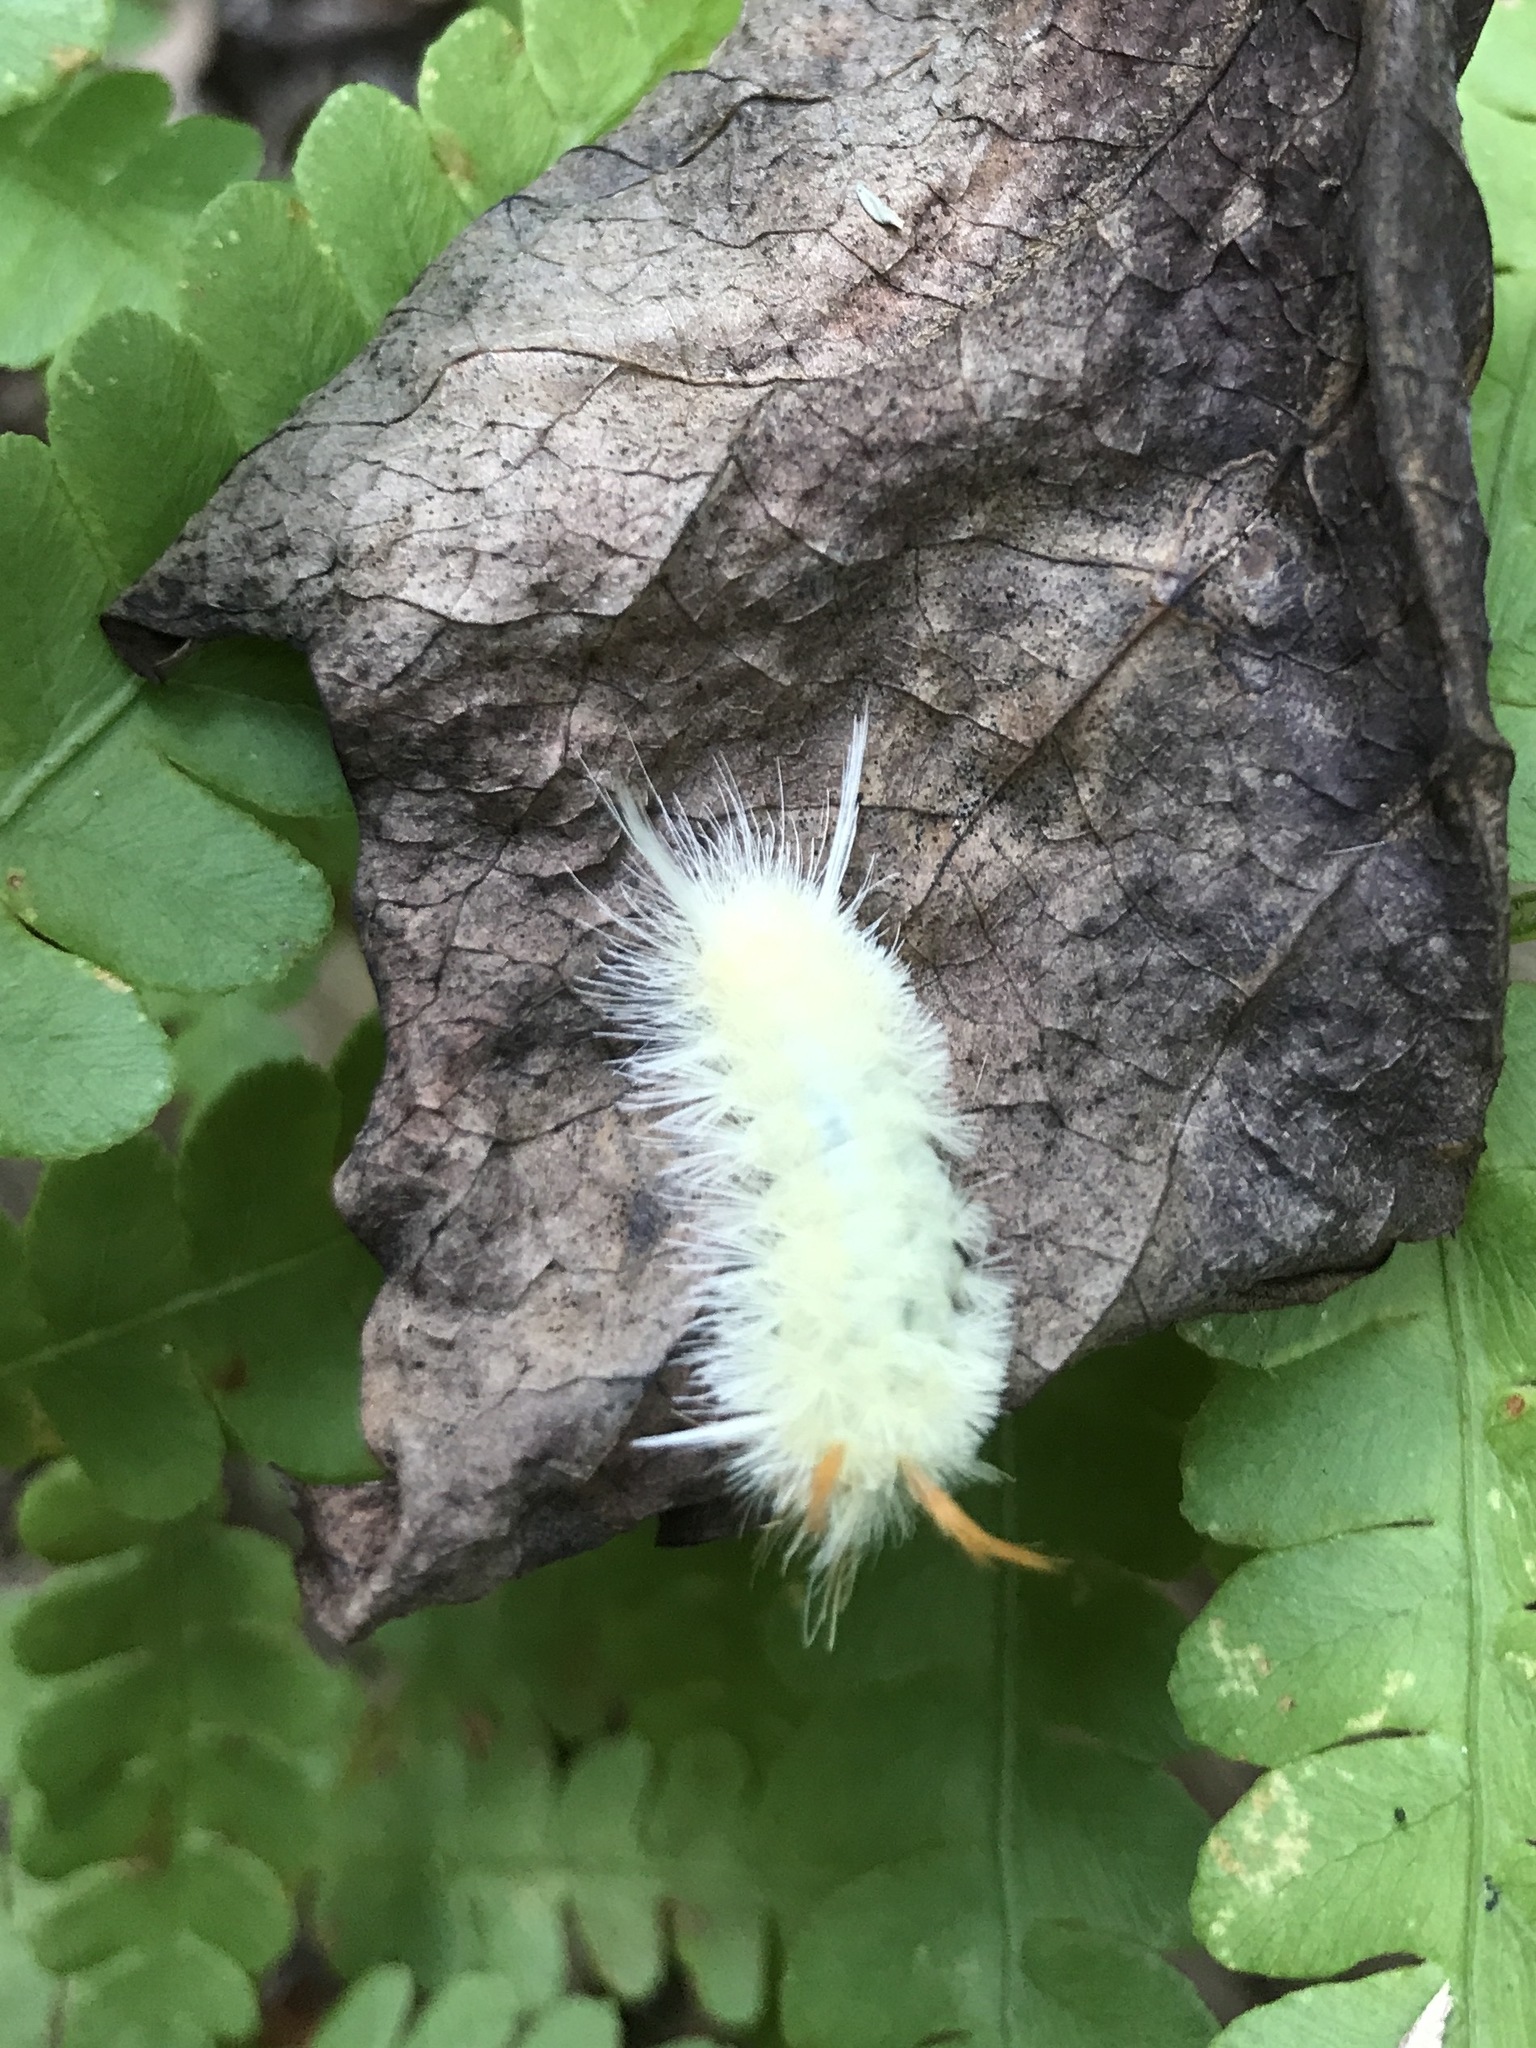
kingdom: Animalia
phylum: Arthropoda
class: Insecta
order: Lepidoptera
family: Erebidae
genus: Halysidota
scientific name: Halysidota harrisii
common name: Sycamore tussock moth
